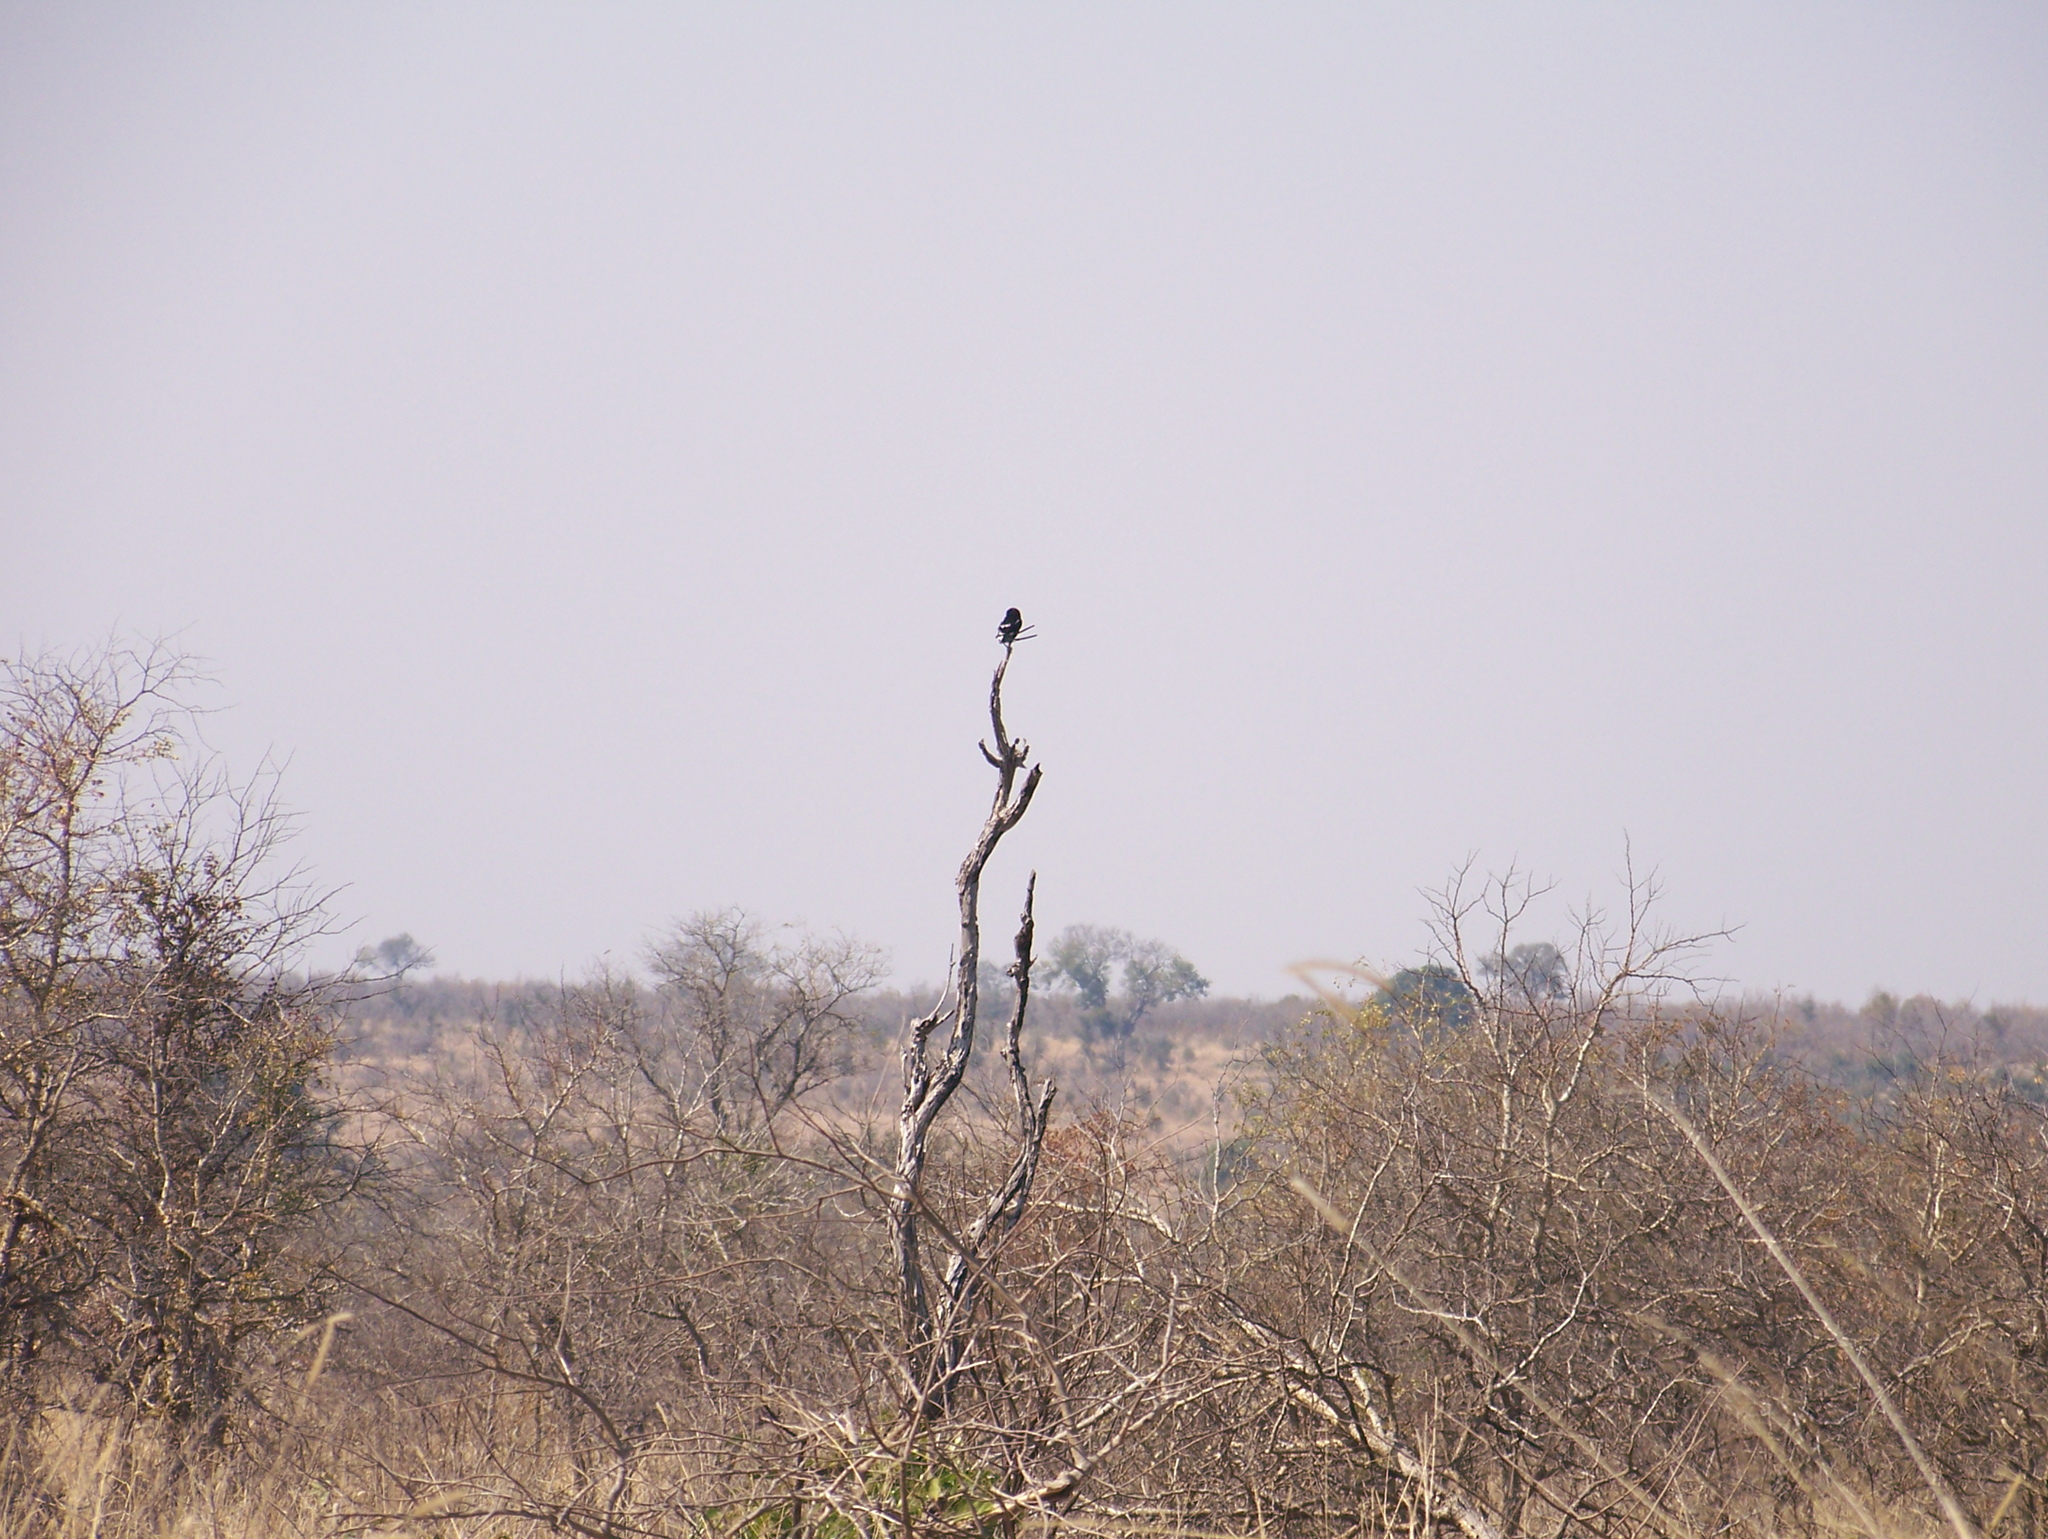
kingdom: Animalia
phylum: Chordata
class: Aves
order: Passeriformes
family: Laniidae
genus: Urolestes
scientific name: Urolestes melanoleucus
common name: Magpie shrike
